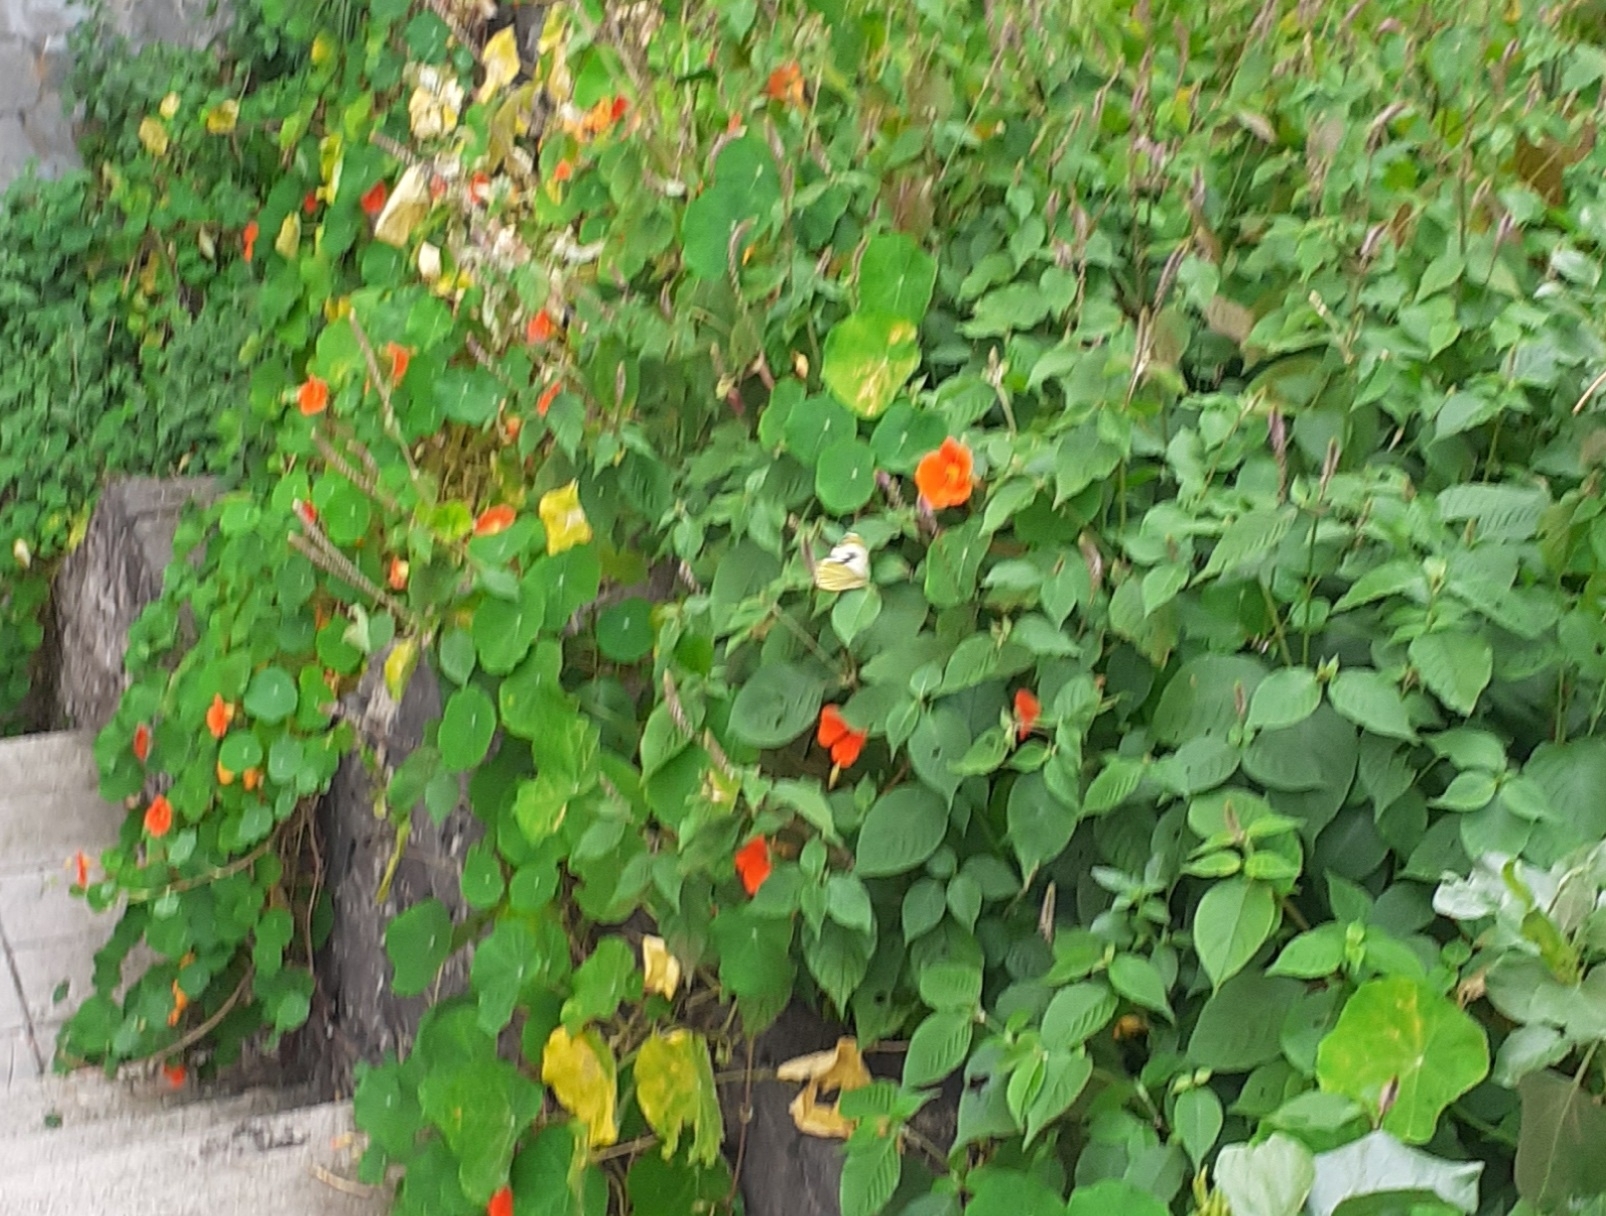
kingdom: Animalia
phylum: Arthropoda
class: Insecta
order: Lepidoptera
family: Pieridae
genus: Pieris
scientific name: Pieris cheiranthi
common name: Canary islands large white
